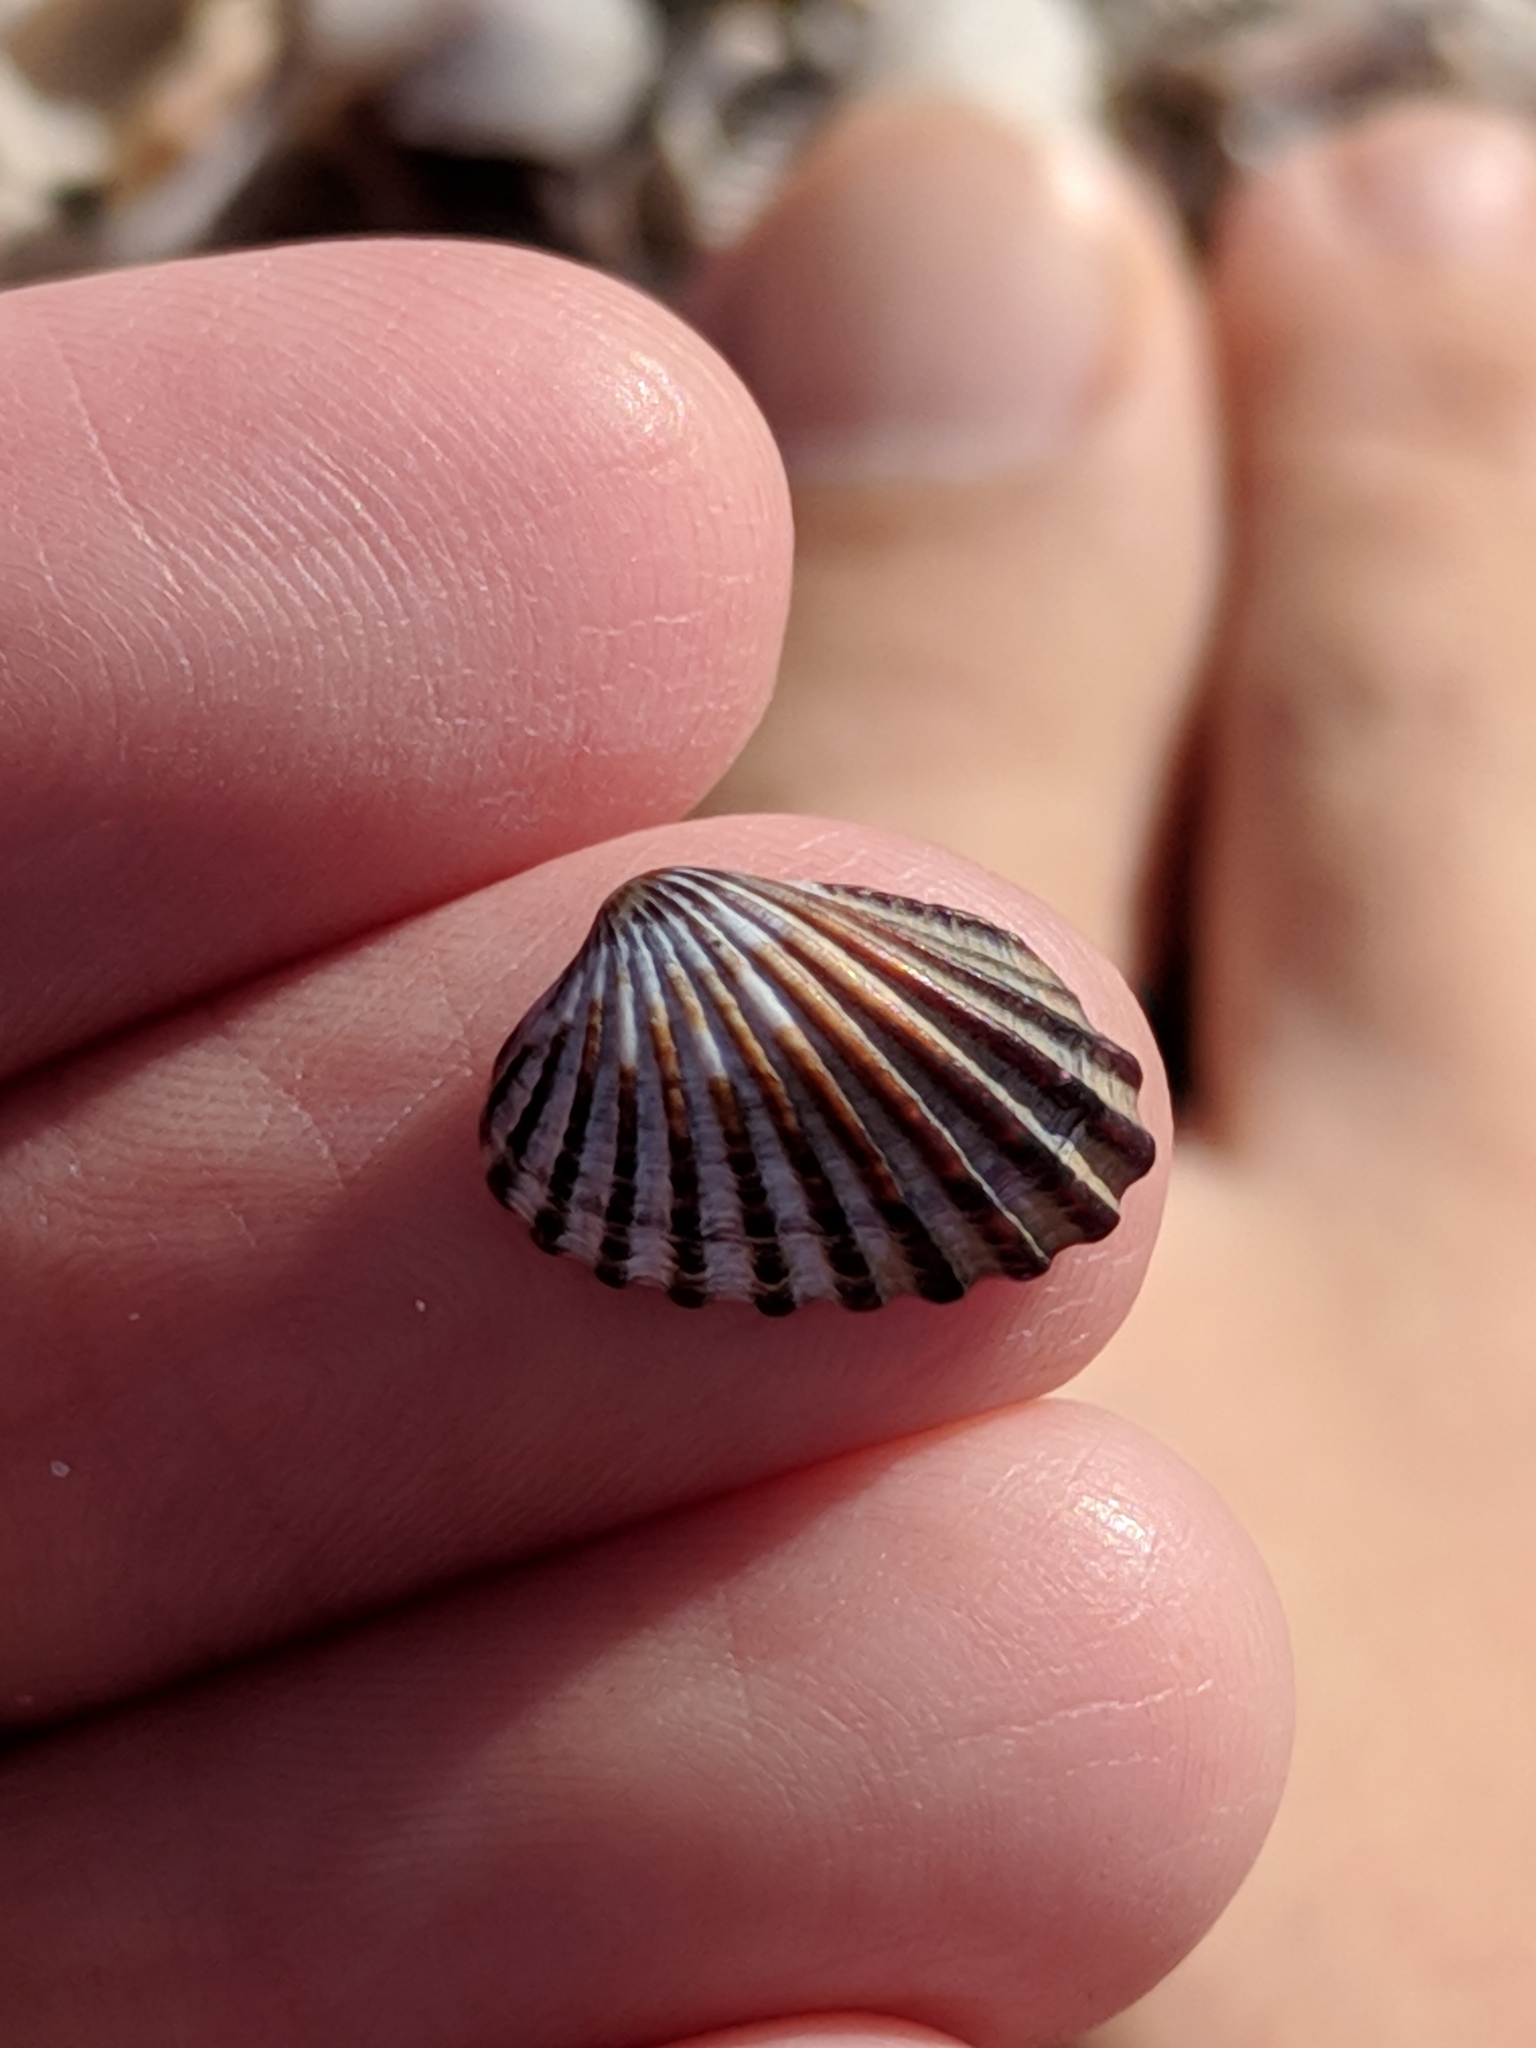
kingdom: Animalia
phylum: Mollusca
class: Bivalvia
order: Carditida
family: Carditidae
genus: Cardites
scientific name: Cardites floridanus
